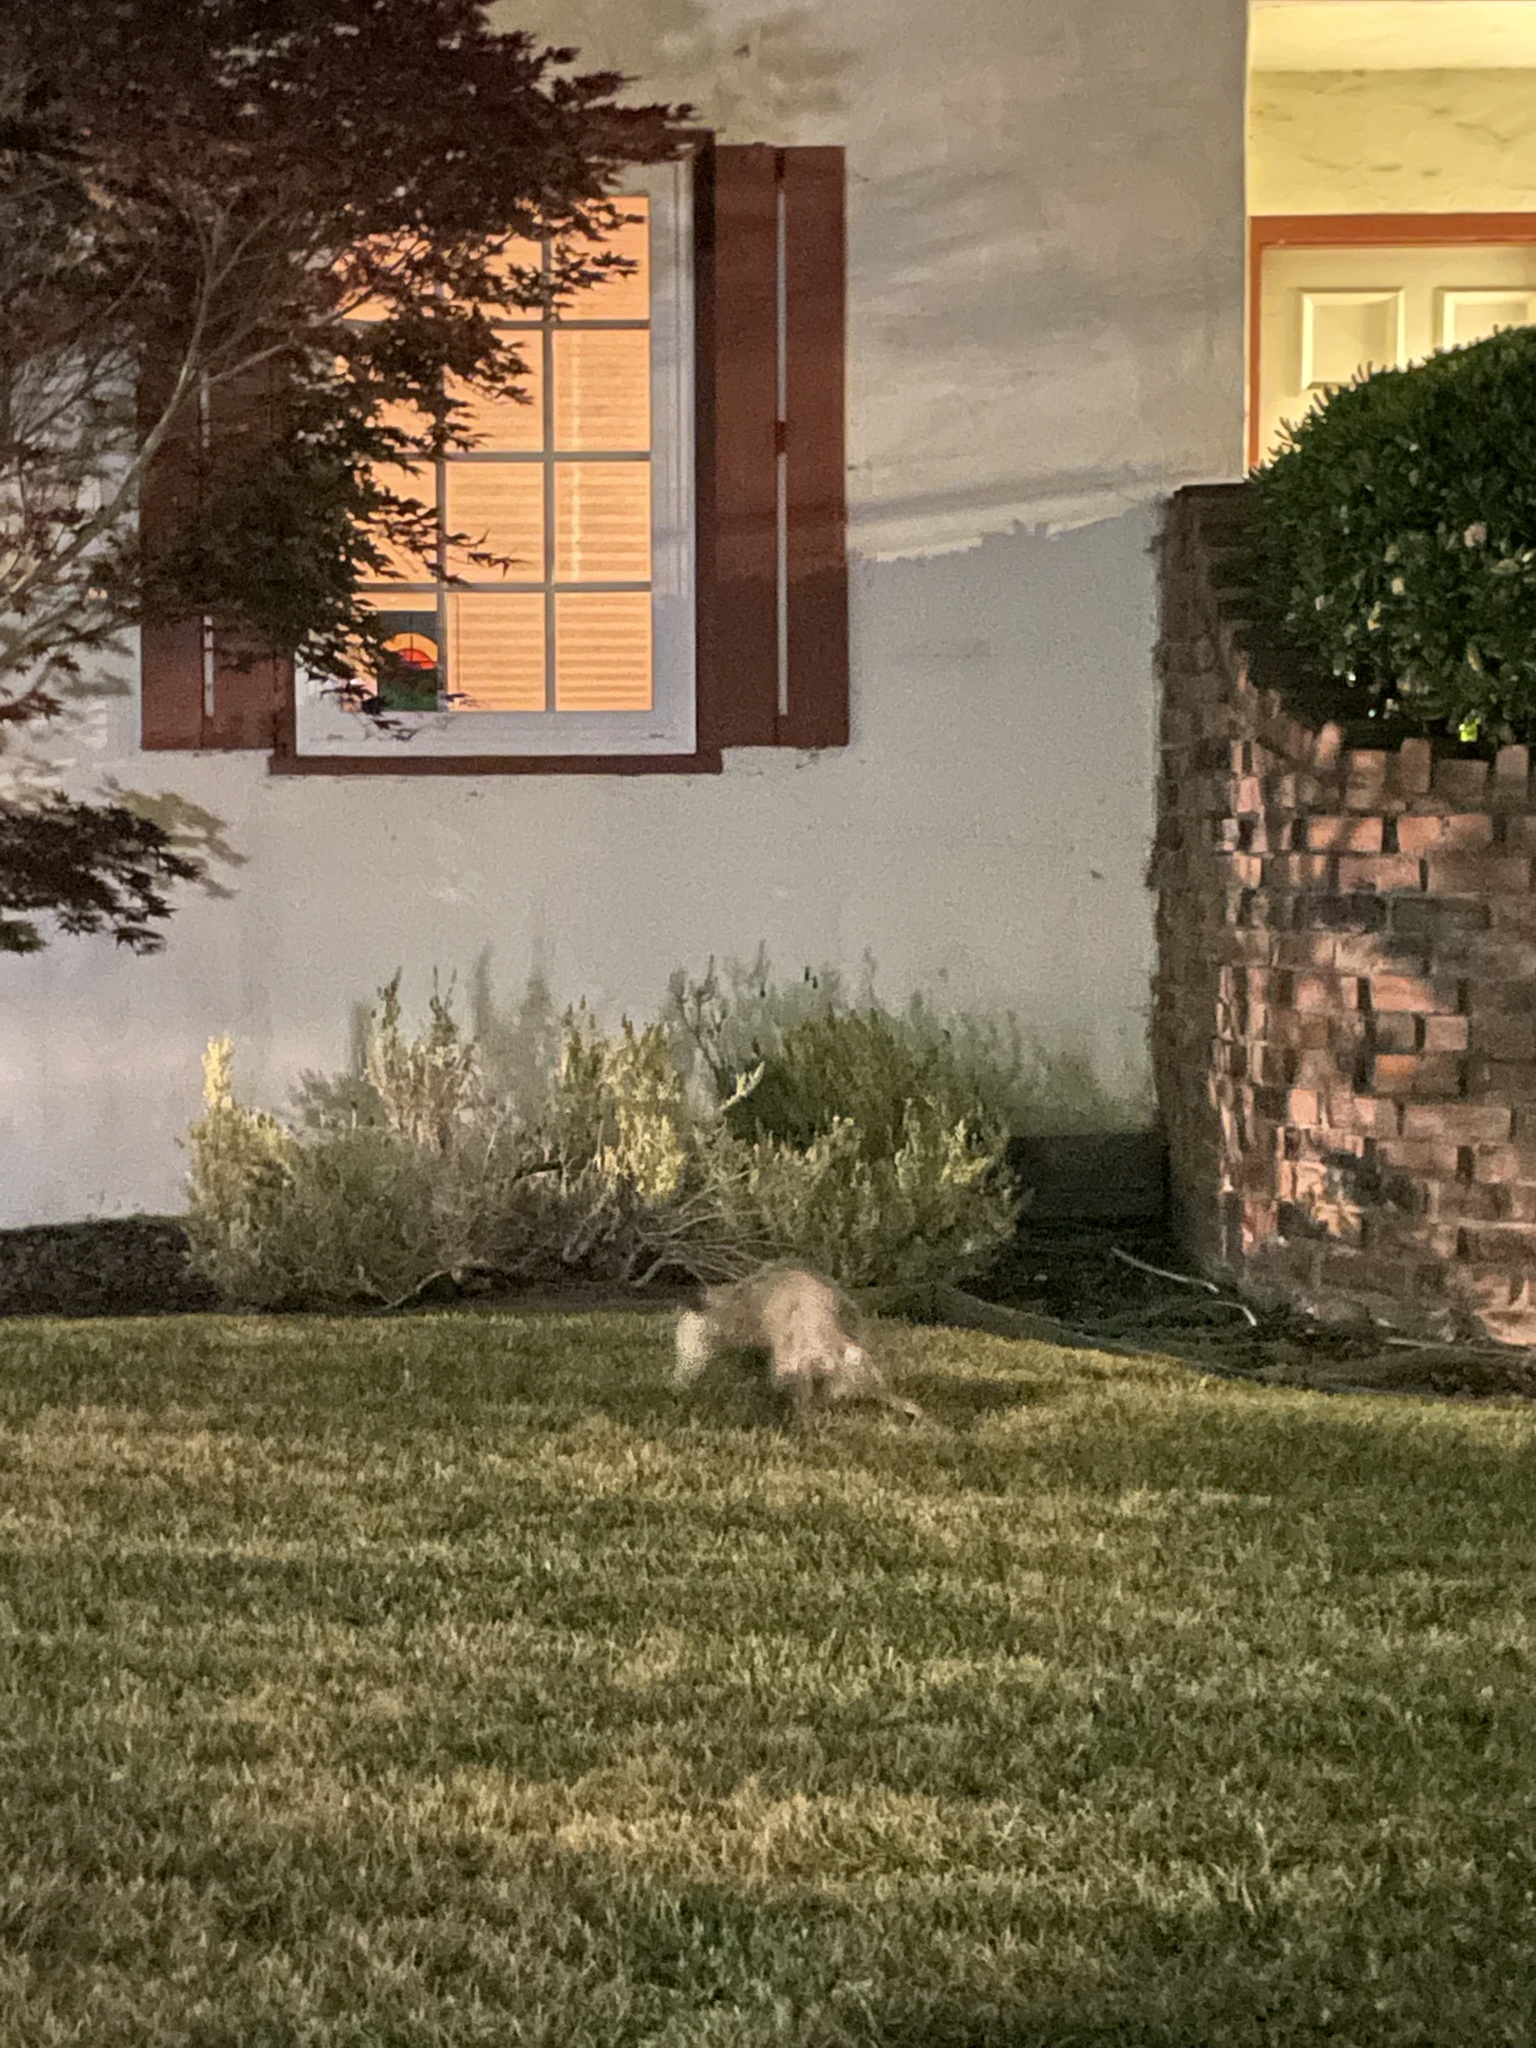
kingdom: Animalia
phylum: Chordata
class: Mammalia
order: Didelphimorphia
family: Didelphidae
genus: Didelphis
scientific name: Didelphis virginiana
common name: Virginia opossum
